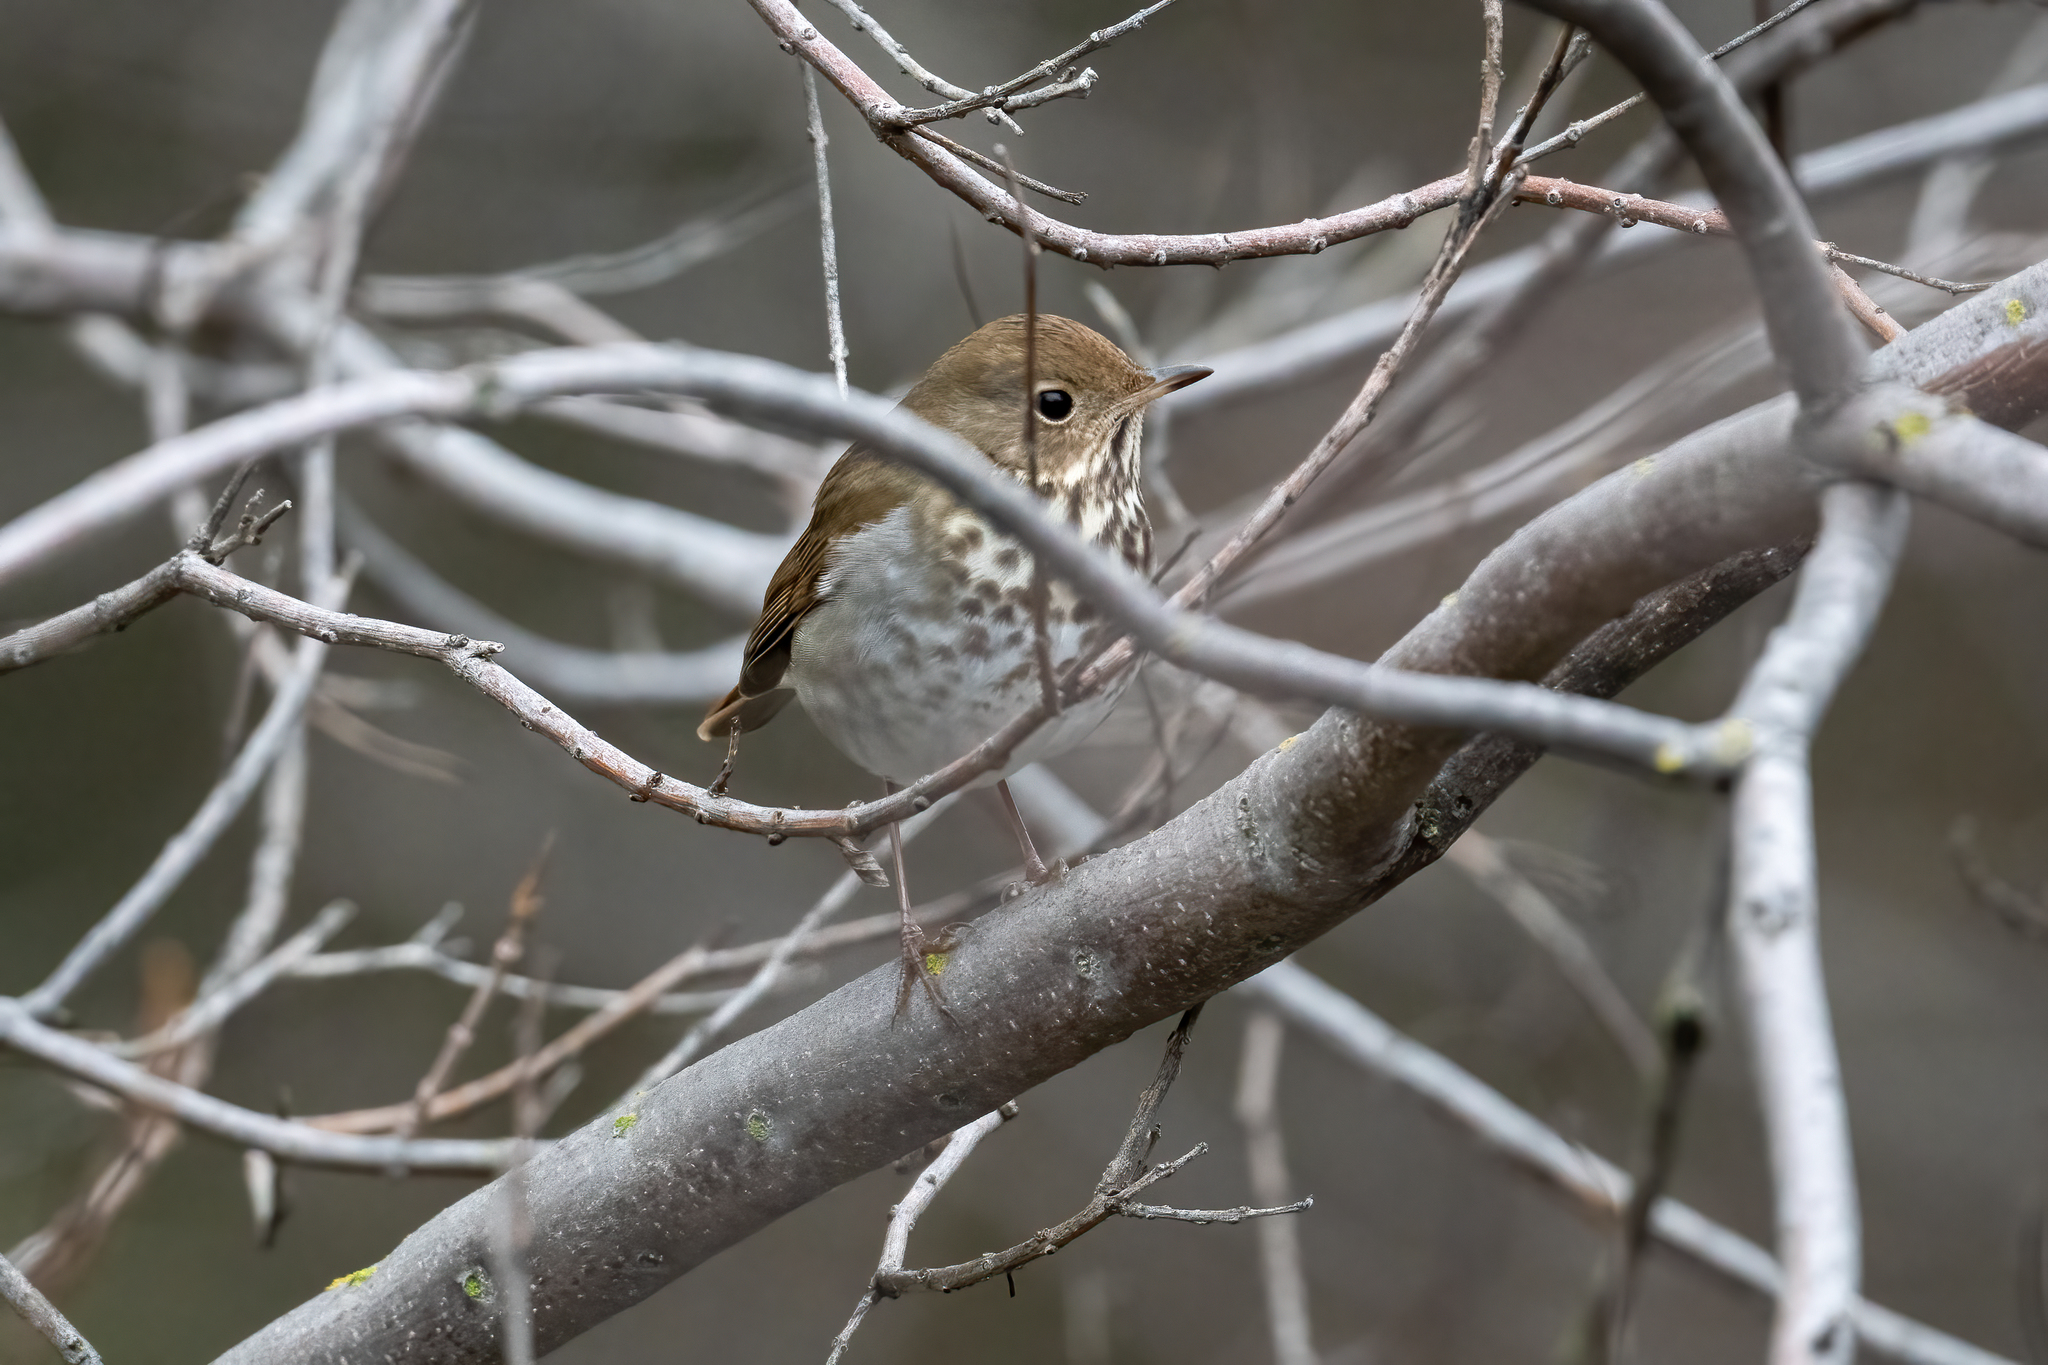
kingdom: Animalia
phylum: Chordata
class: Aves
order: Passeriformes
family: Turdidae
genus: Catharus
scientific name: Catharus guttatus
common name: Hermit thrush
